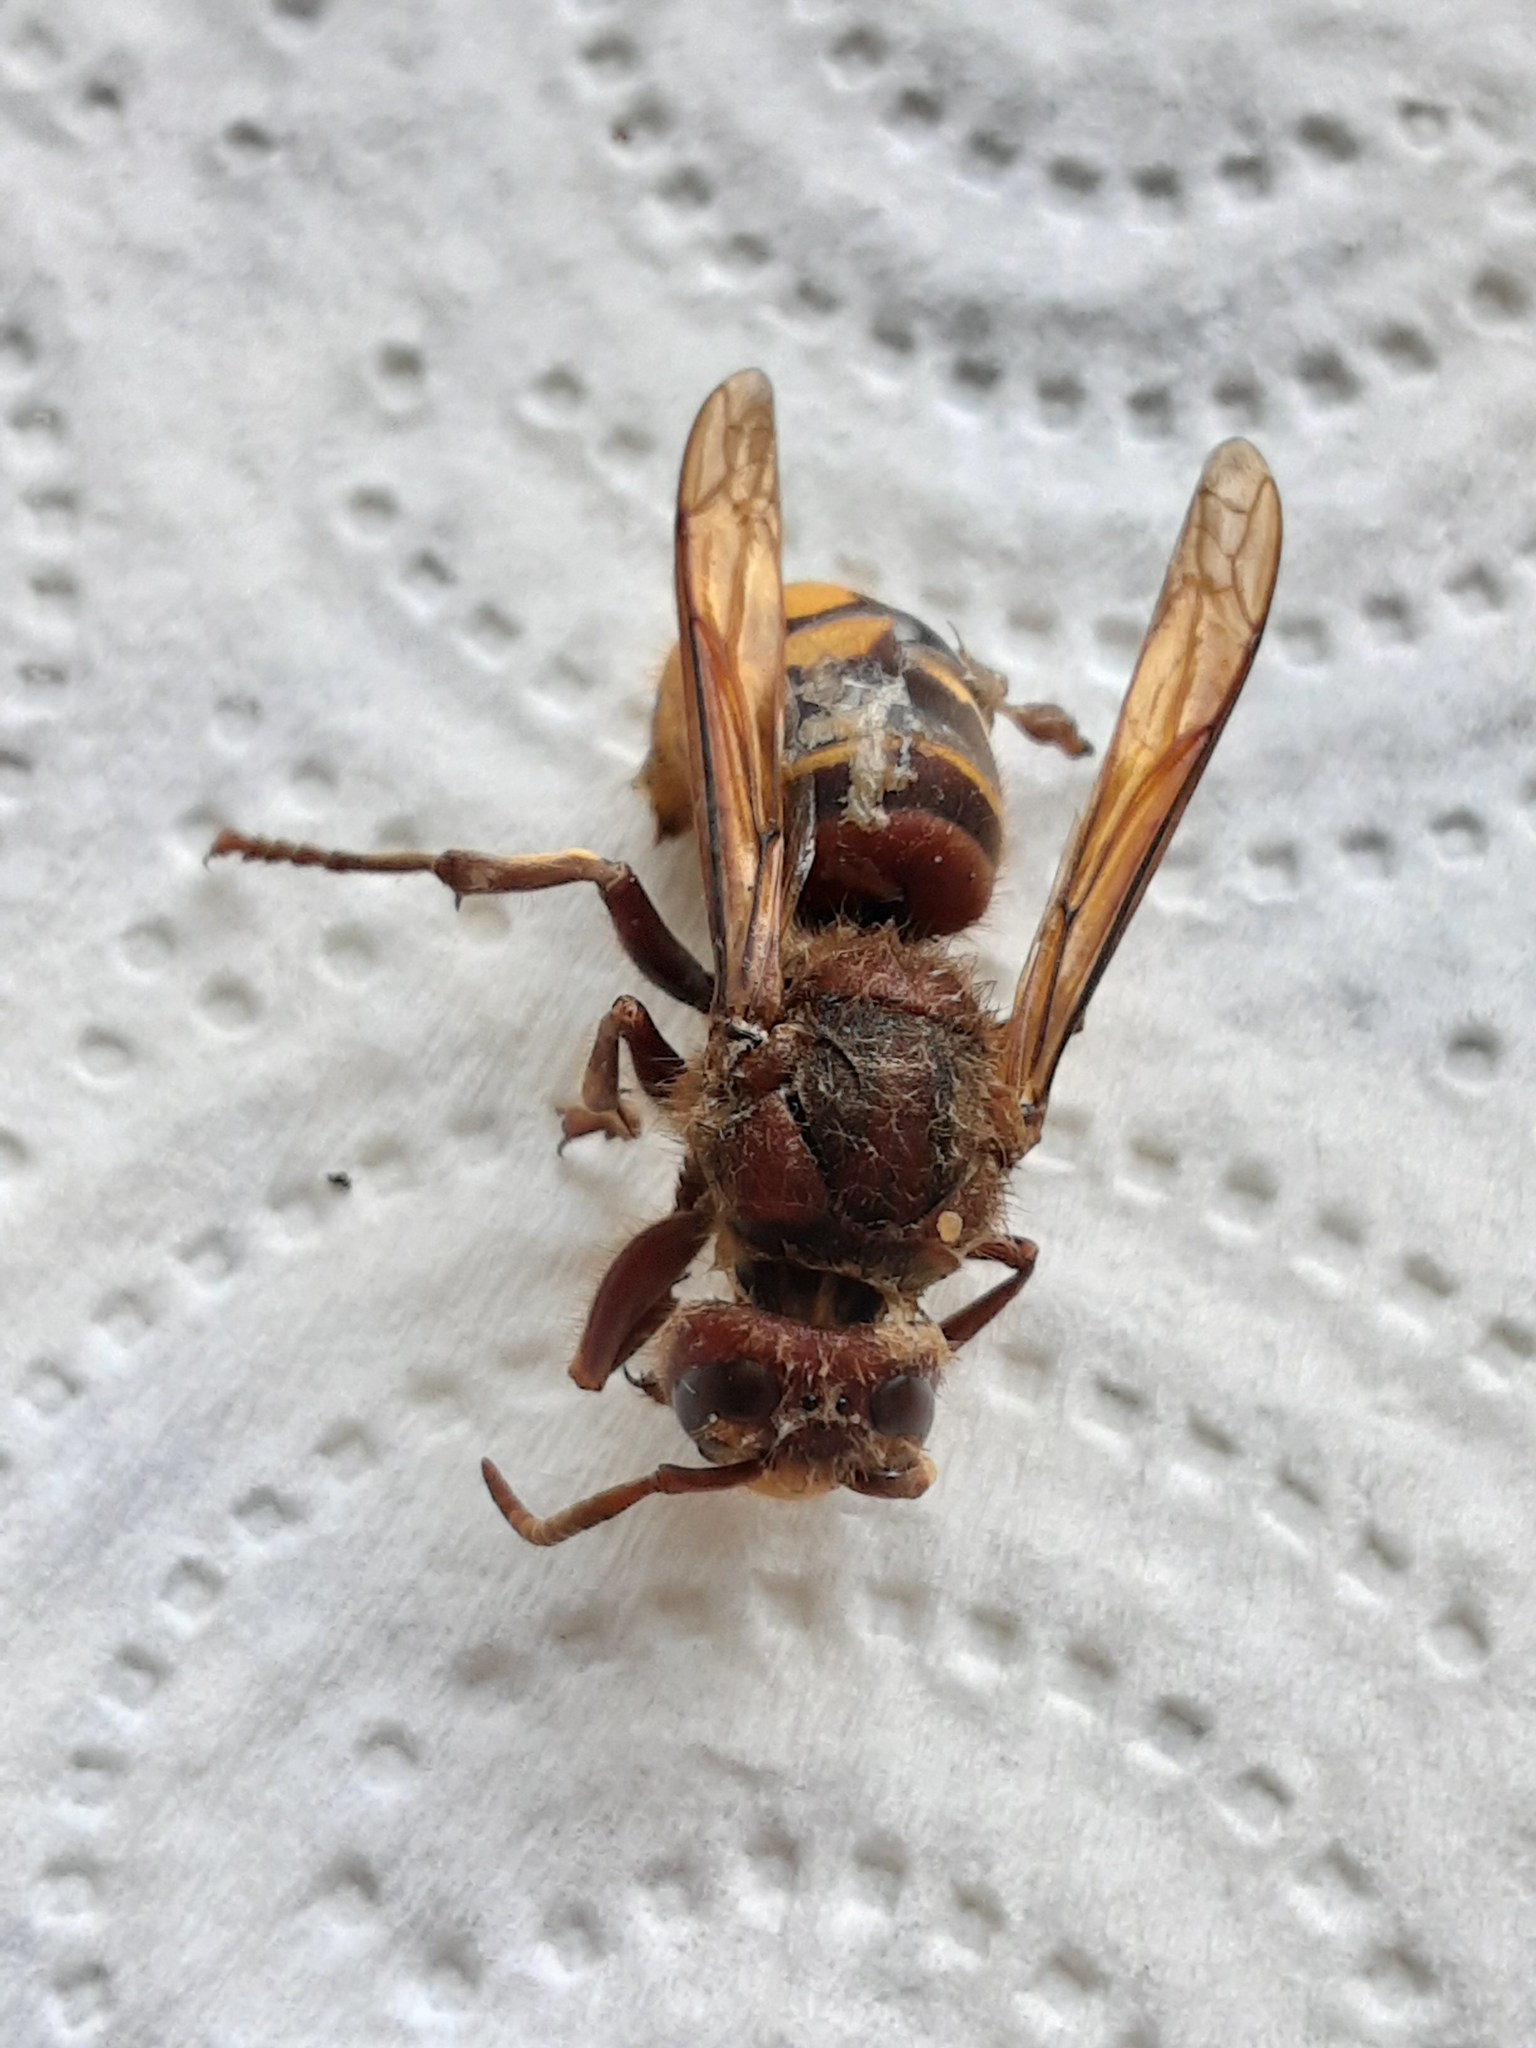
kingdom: Animalia
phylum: Arthropoda
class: Insecta
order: Hymenoptera
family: Vespidae
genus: Vespa
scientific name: Vespa crabro
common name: Hornet
